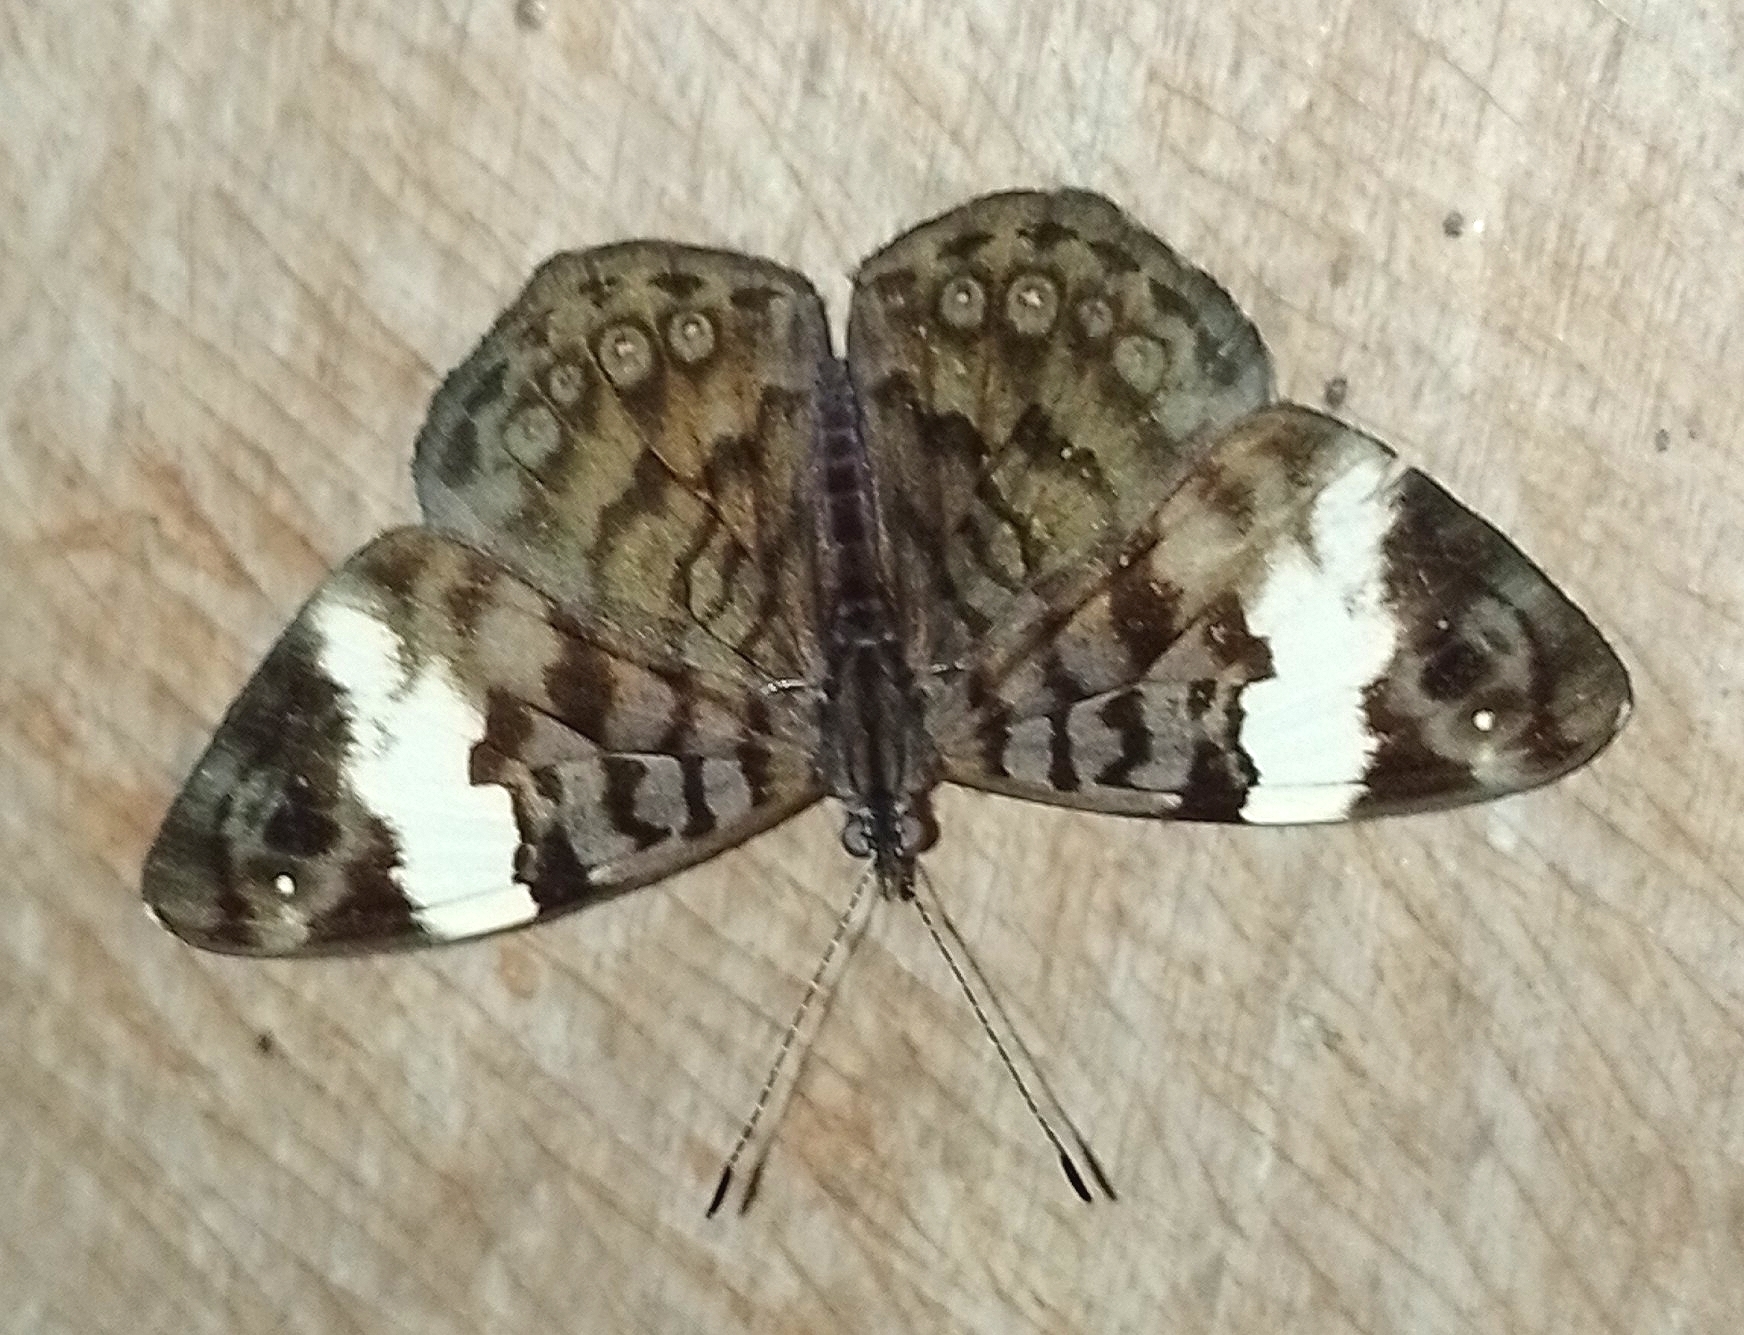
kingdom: Animalia
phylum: Arthropoda
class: Insecta
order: Lepidoptera
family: Nymphalidae
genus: Ectima
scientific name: Ectima thecla
